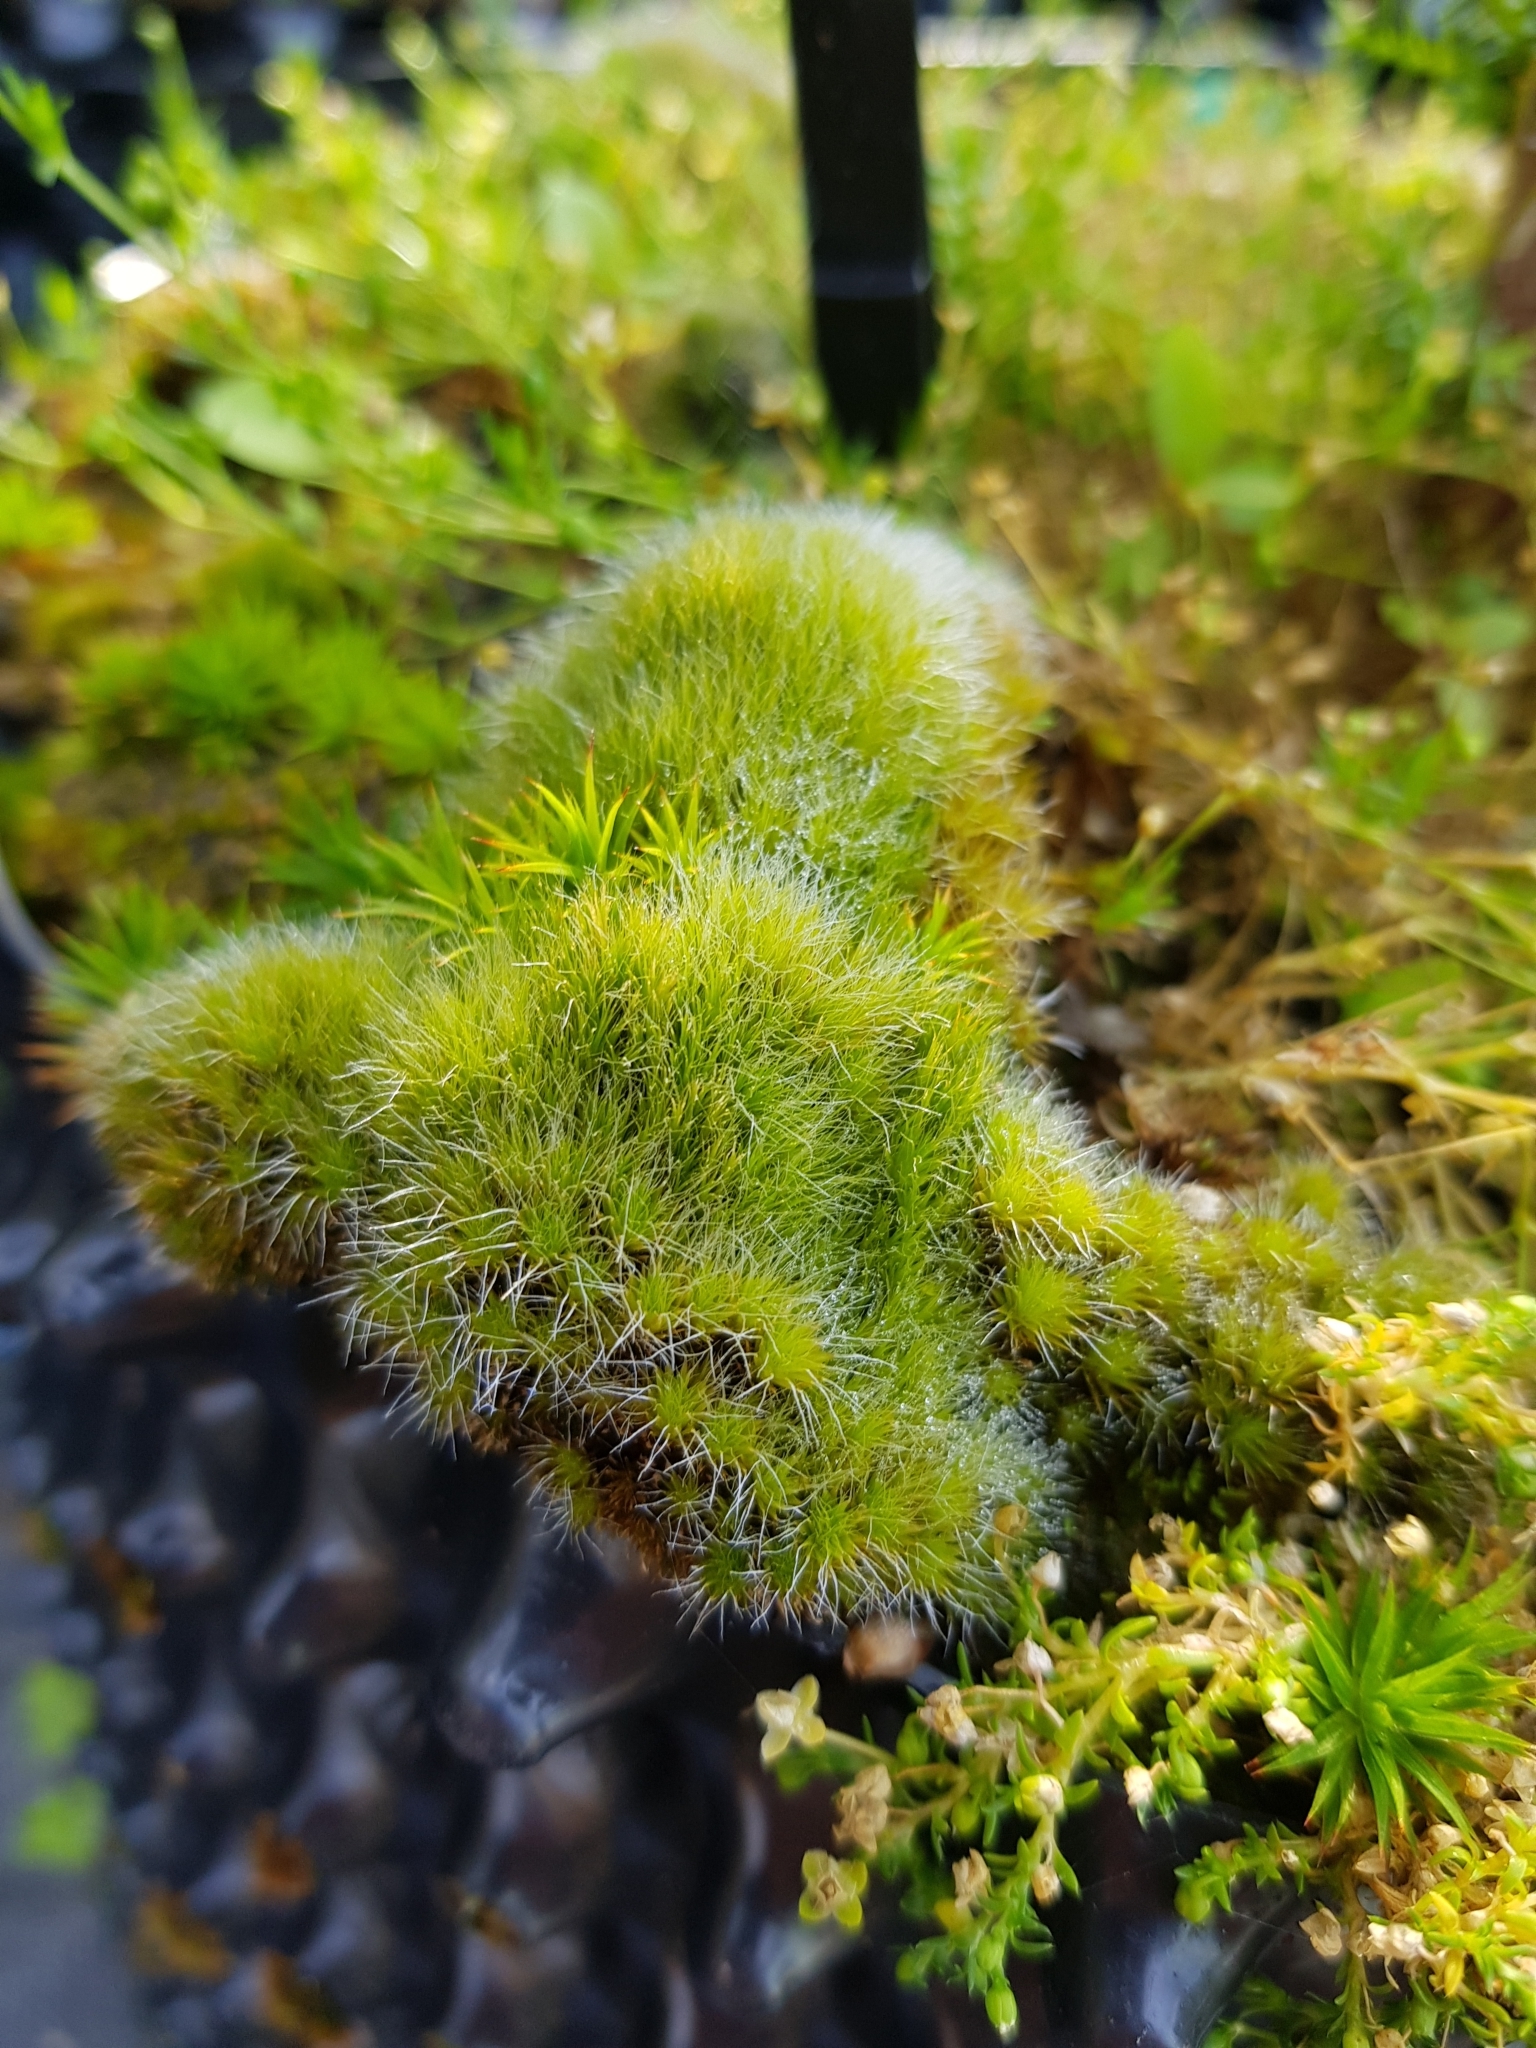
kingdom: Plantae
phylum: Bryophyta
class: Bryopsida
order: Dicranales
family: Leucobryaceae
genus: Campylopus
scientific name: Campylopus introflexus
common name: Heath star moss
